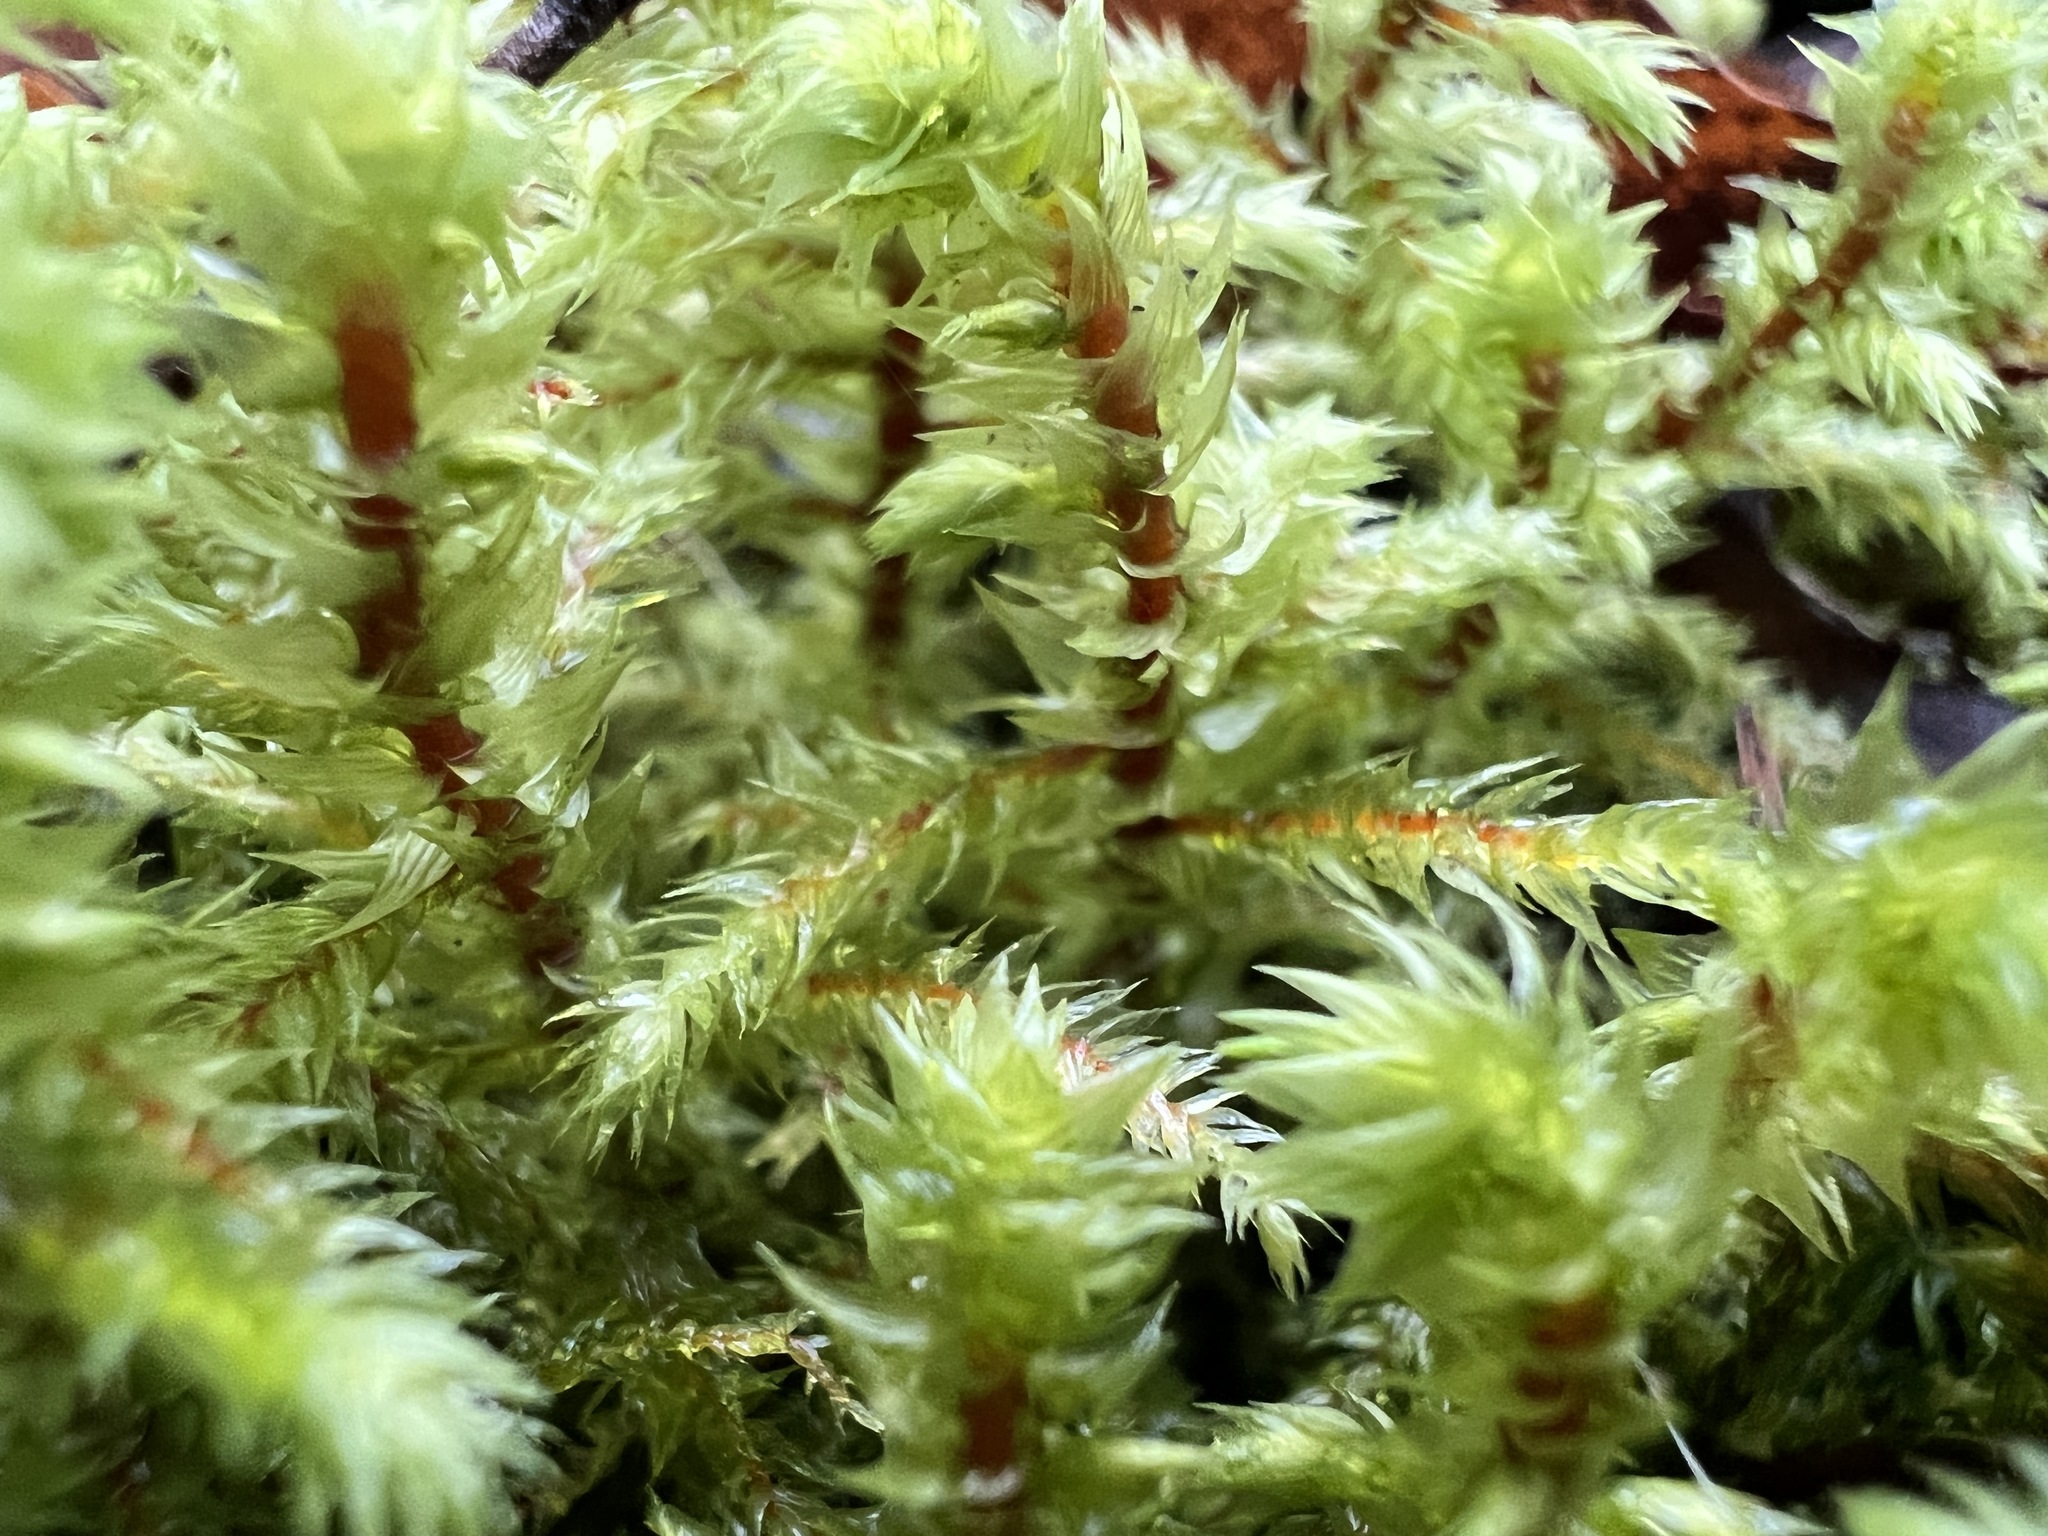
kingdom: Plantae
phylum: Bryophyta
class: Bryopsida
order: Hypnales
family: Hylocomiaceae
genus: Hylocomiadelphus
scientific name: Hylocomiadelphus triquetrus
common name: Rough goose neck moss
